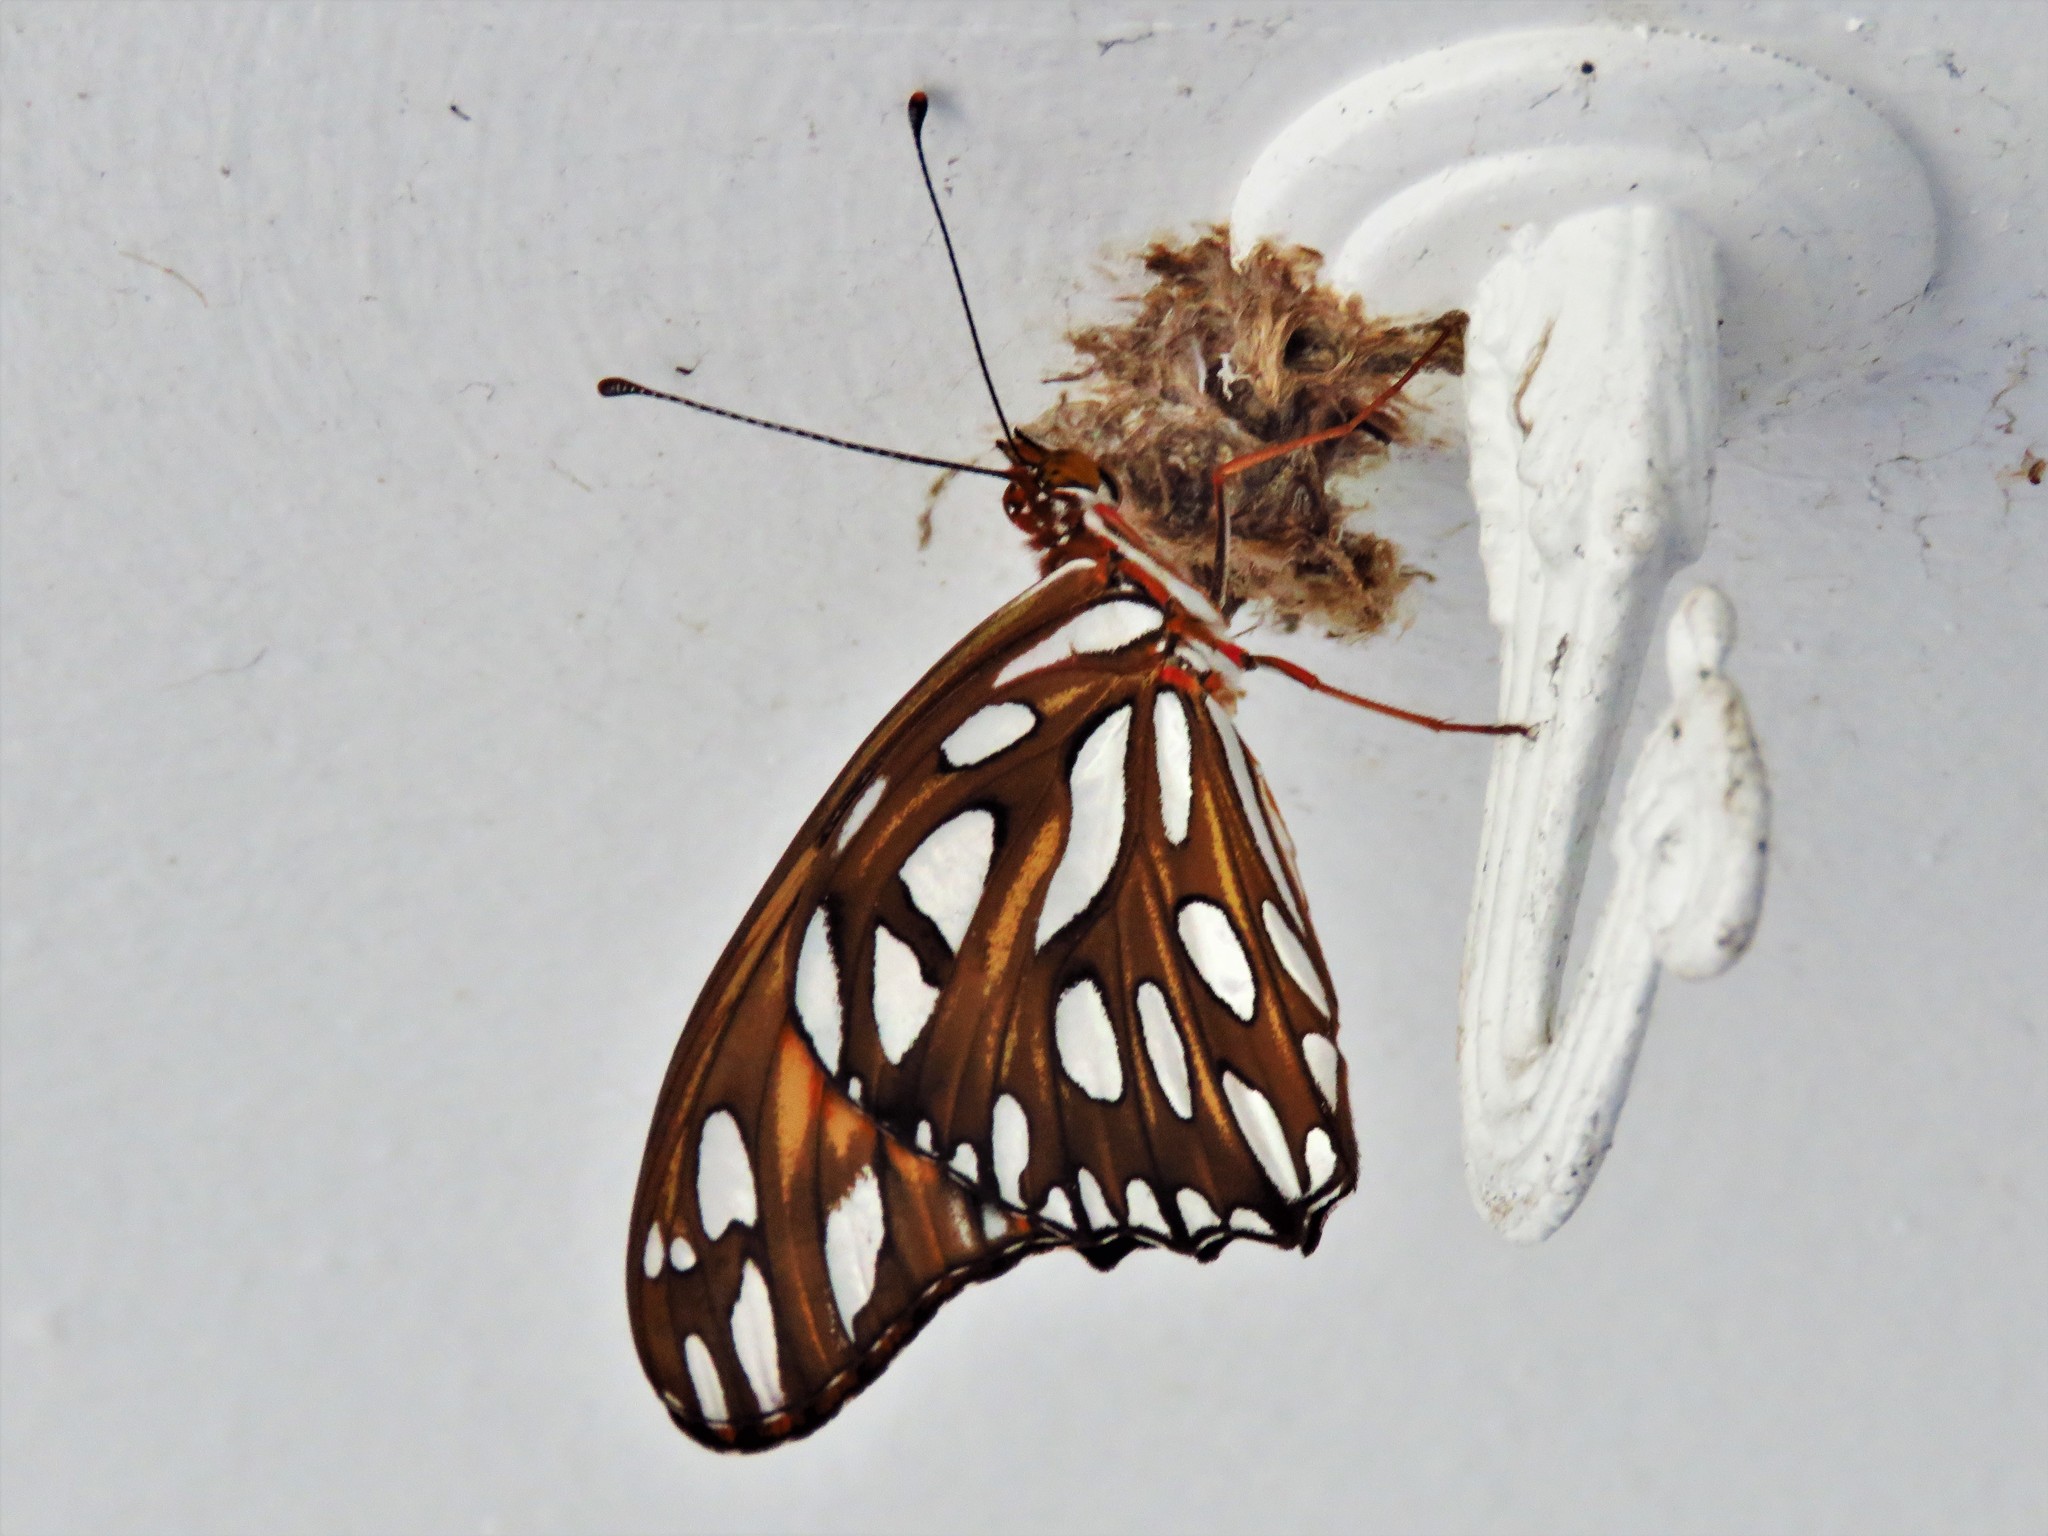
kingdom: Animalia
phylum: Arthropoda
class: Insecta
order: Lepidoptera
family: Nymphalidae
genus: Dione
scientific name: Dione vanillae
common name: Gulf fritillary
